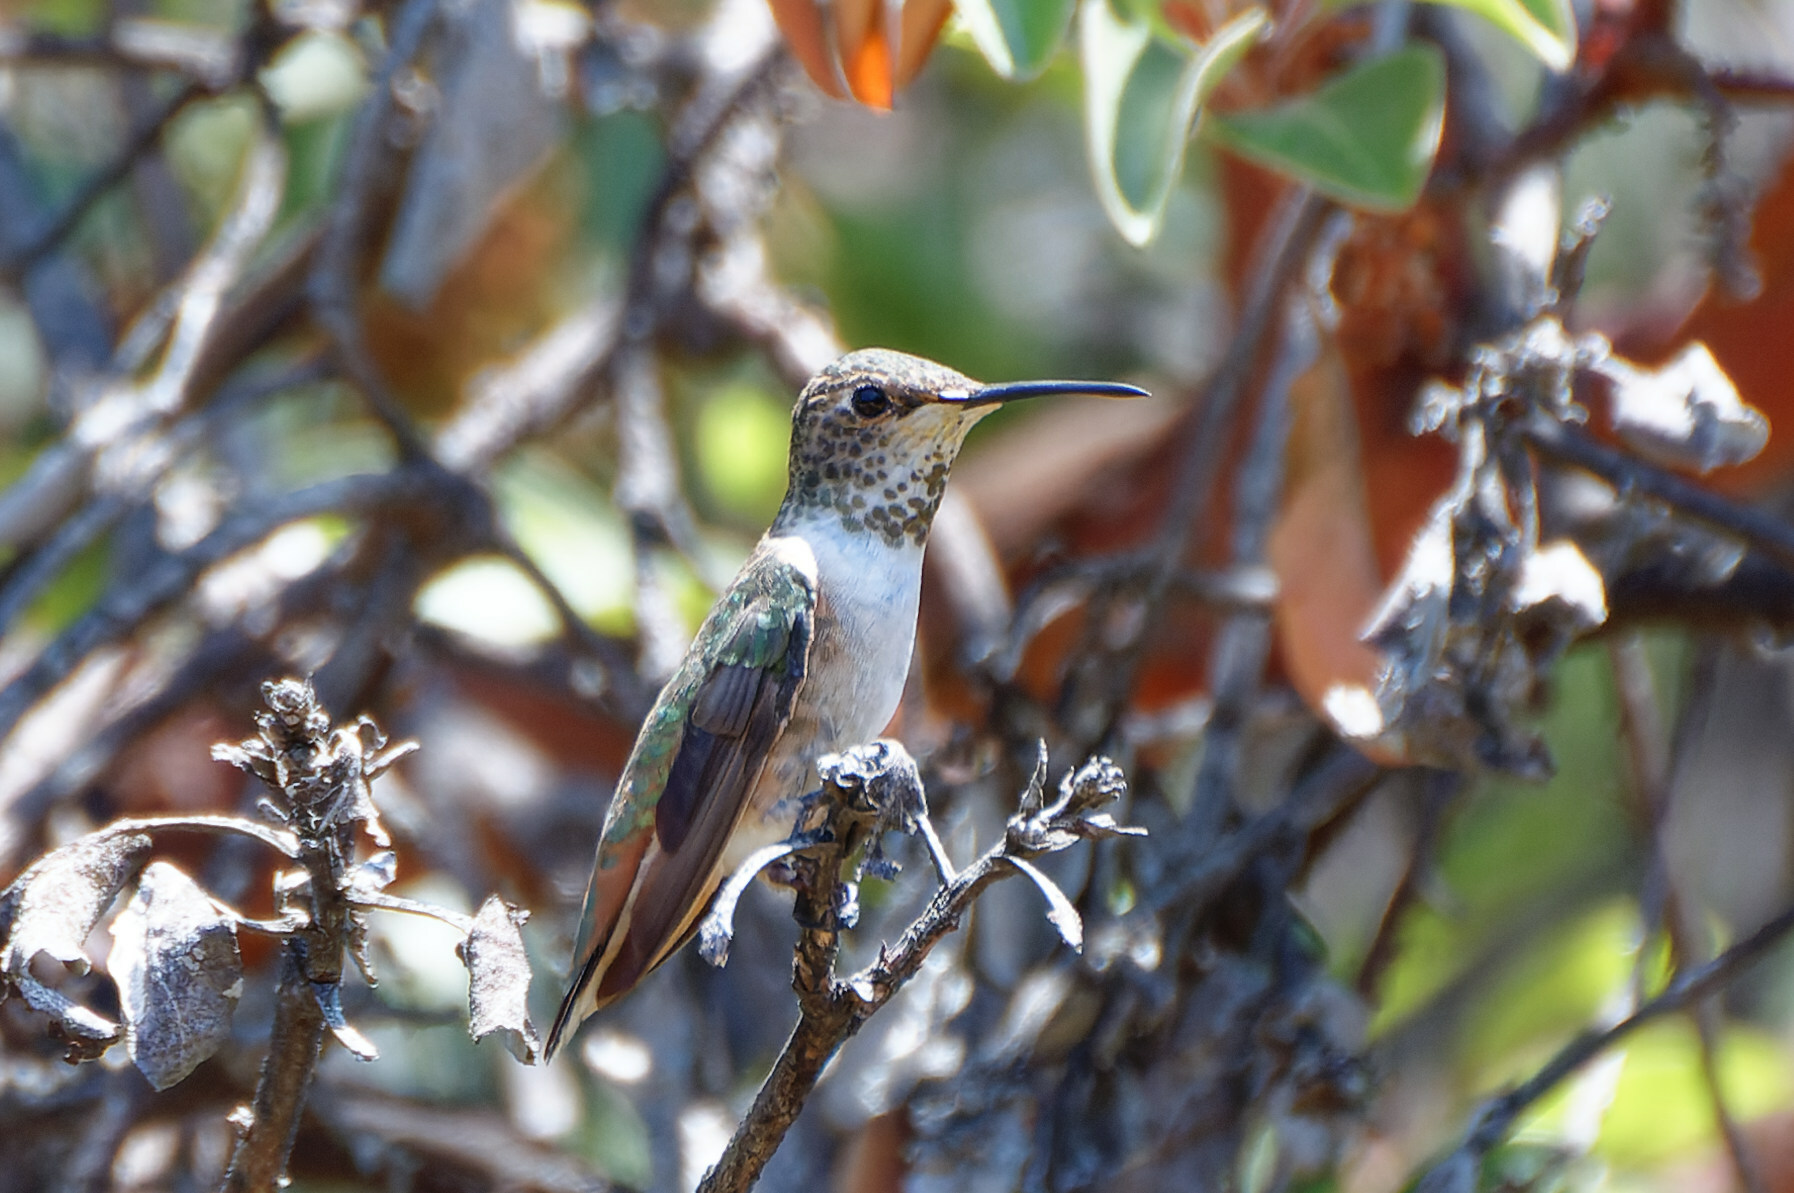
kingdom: Animalia
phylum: Chordata
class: Aves
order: Apodiformes
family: Trochilidae
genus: Selasphorus
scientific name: Selasphorus sasin
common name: Allen's hummingbird
